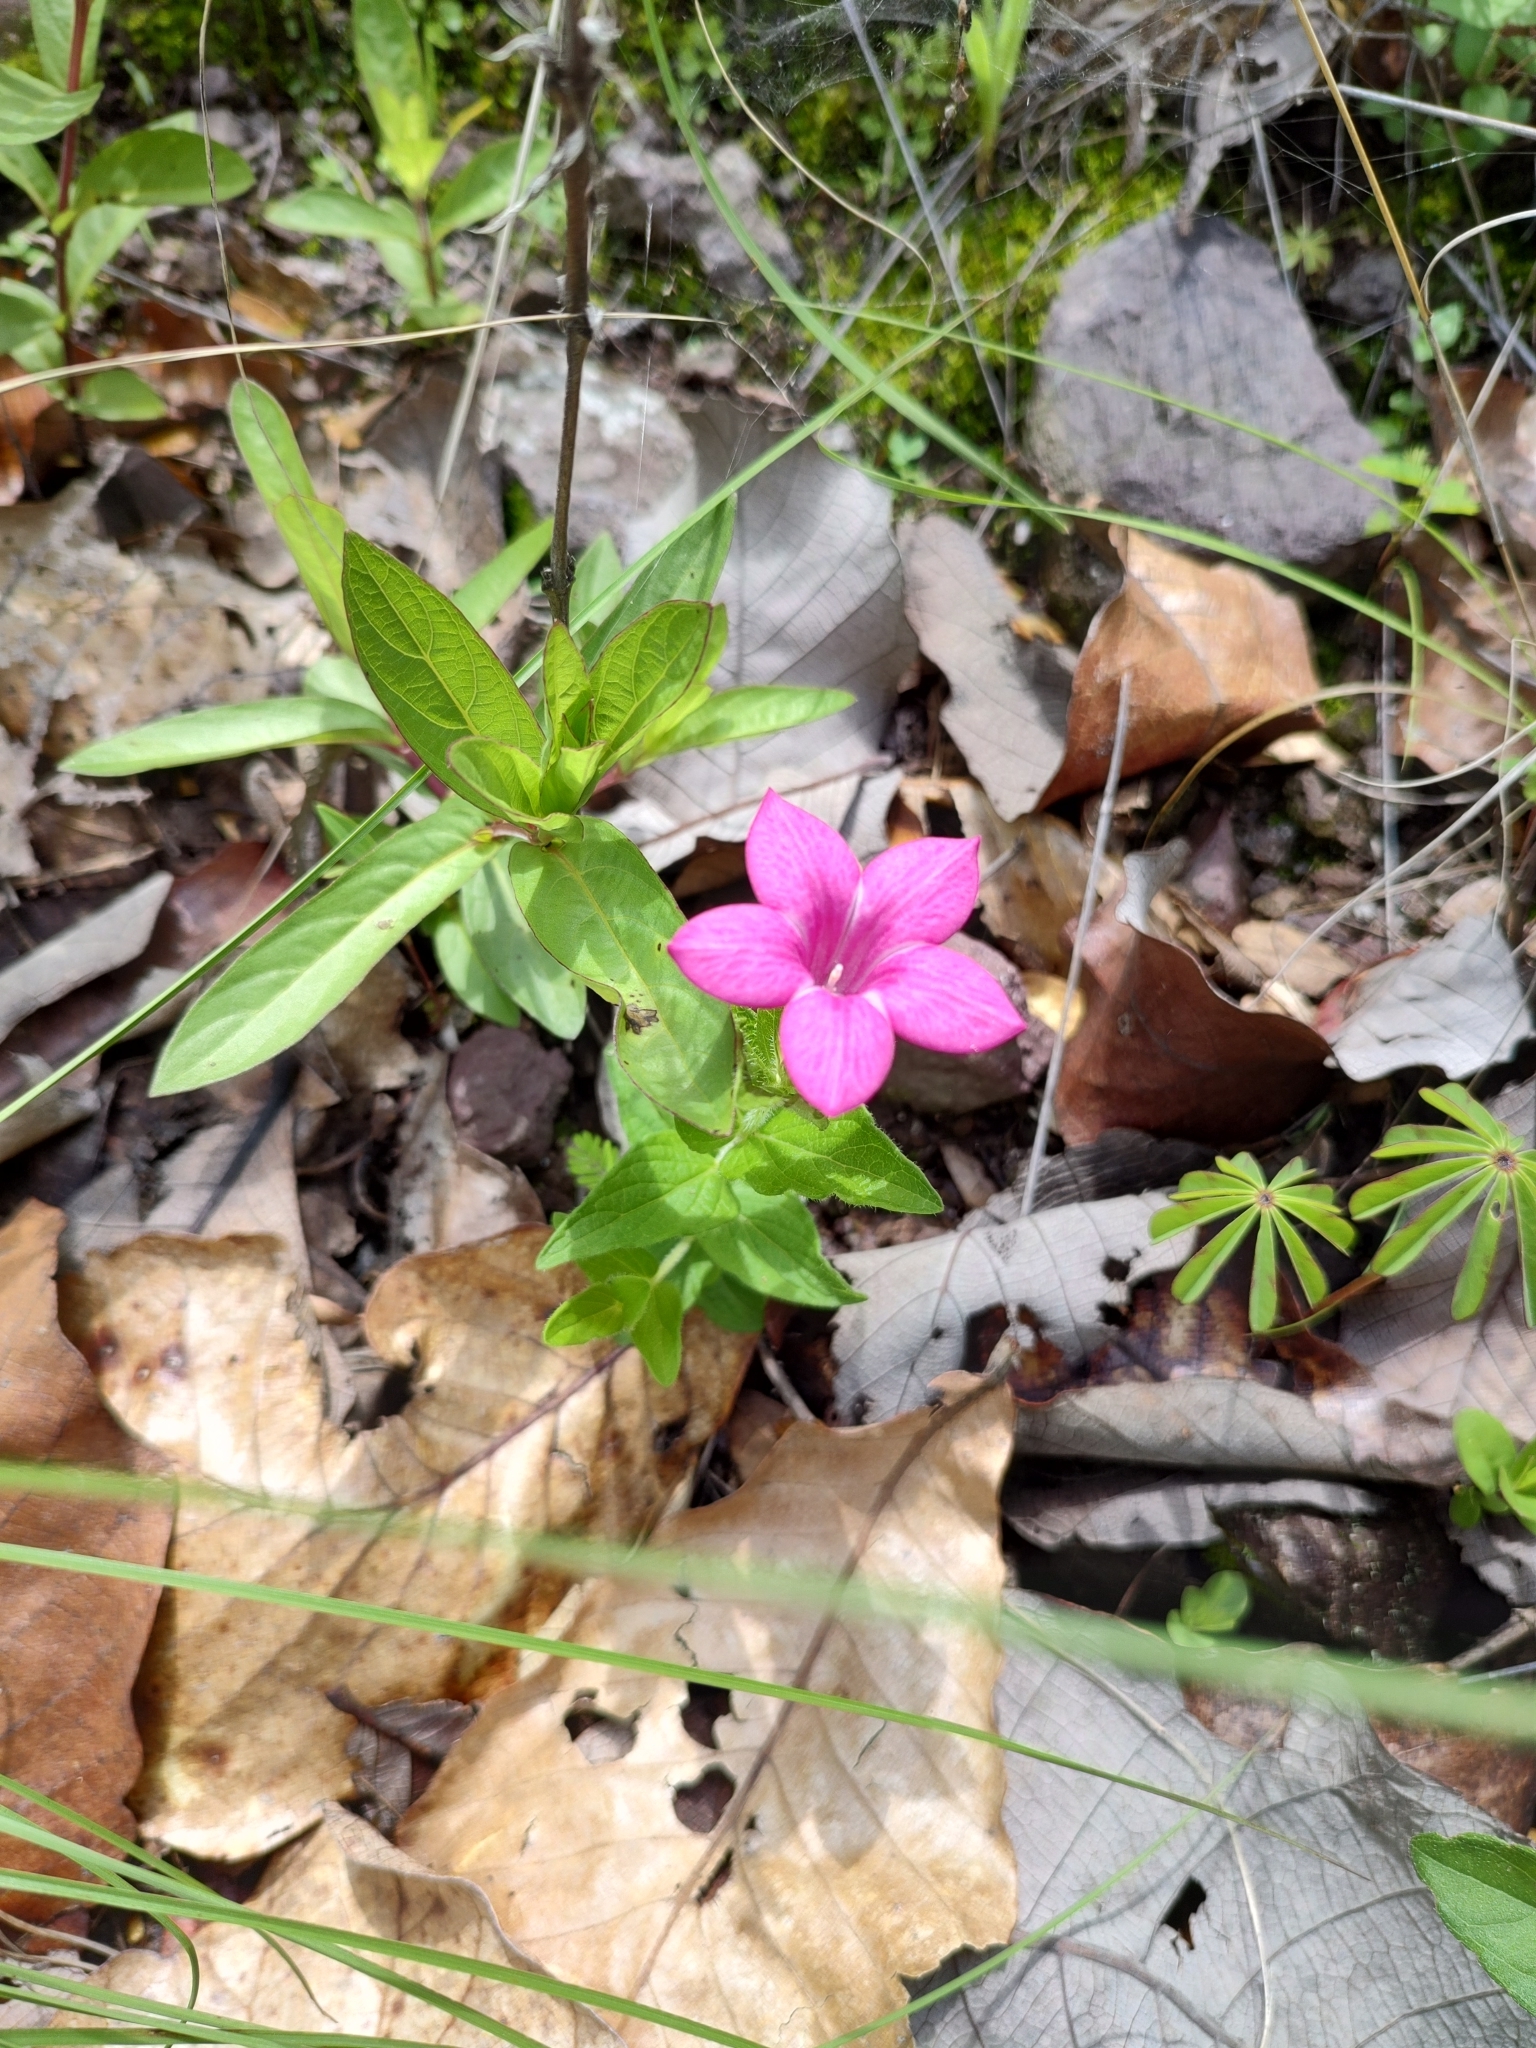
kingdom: Plantae
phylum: Tracheophyta
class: Magnoliopsida
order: Gentianales
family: Loganiaceae
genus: Spigelia
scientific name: Spigelia scabrella
